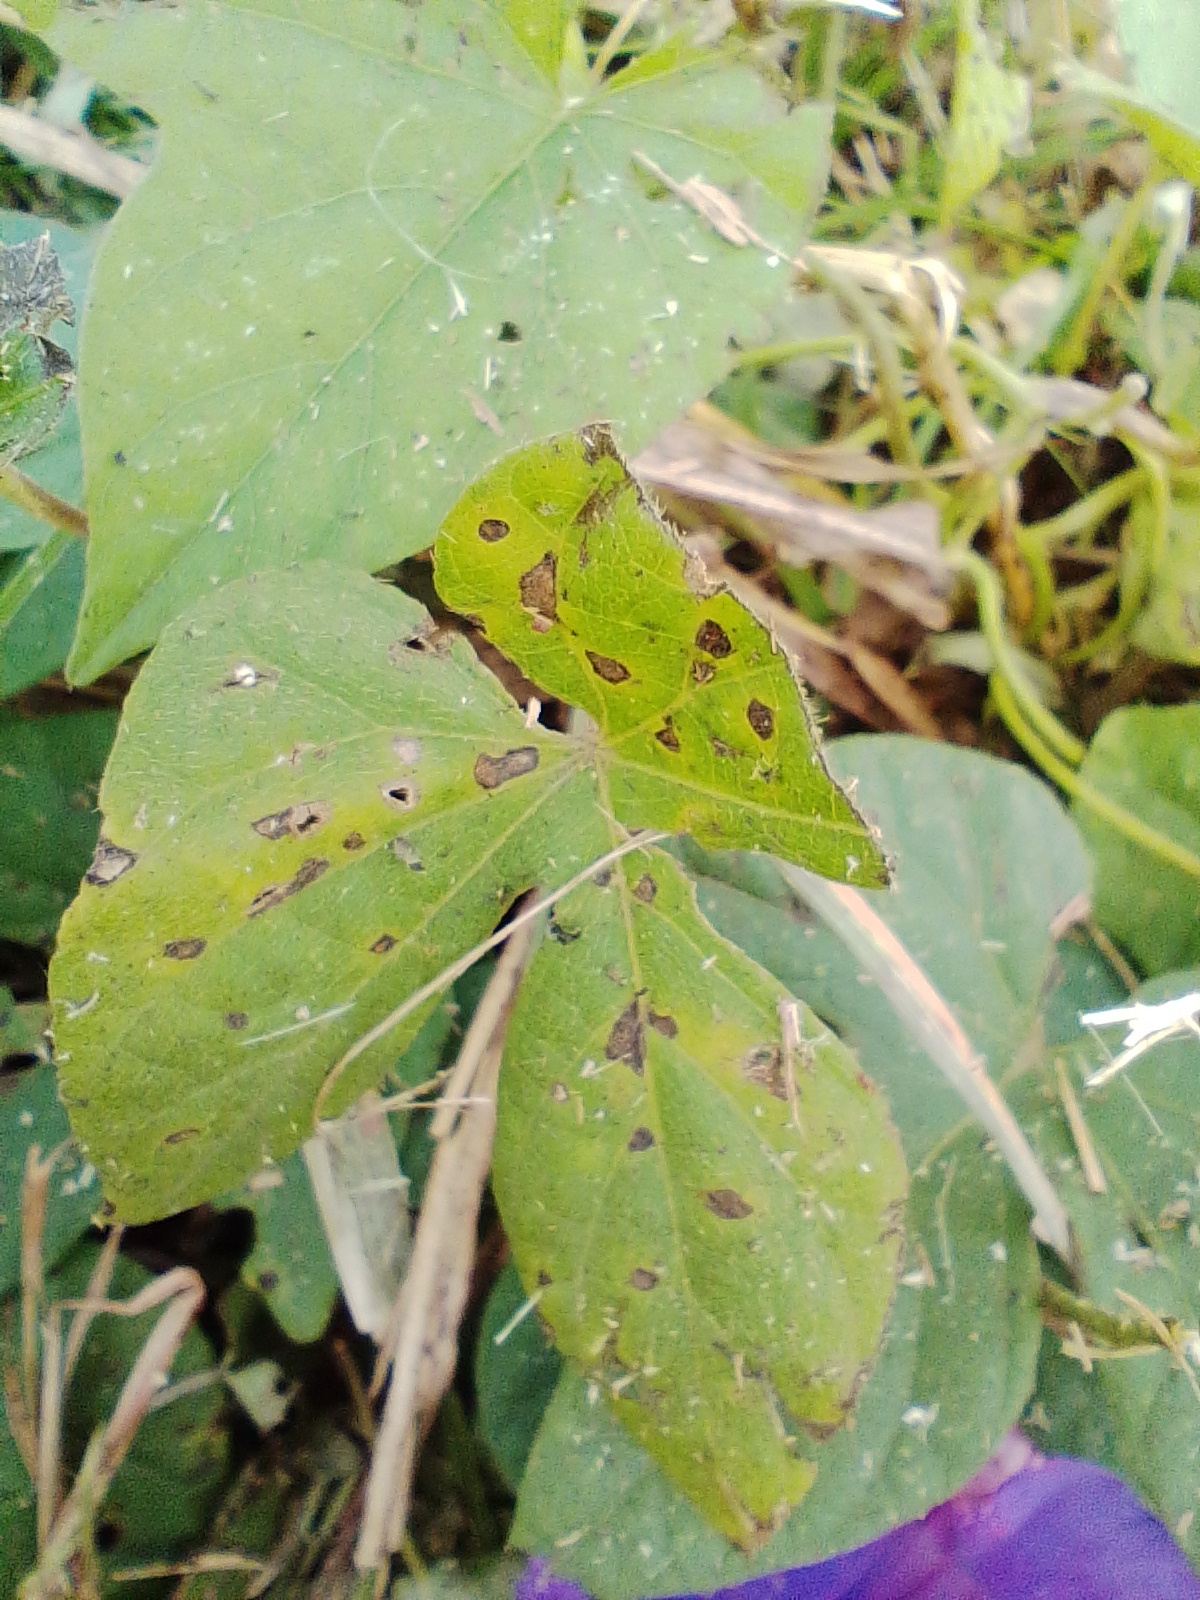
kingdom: Plantae
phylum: Tracheophyta
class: Magnoliopsida
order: Solanales
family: Convolvulaceae
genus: Ipomoea
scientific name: Ipomoea indica
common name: Blue dawnflower
